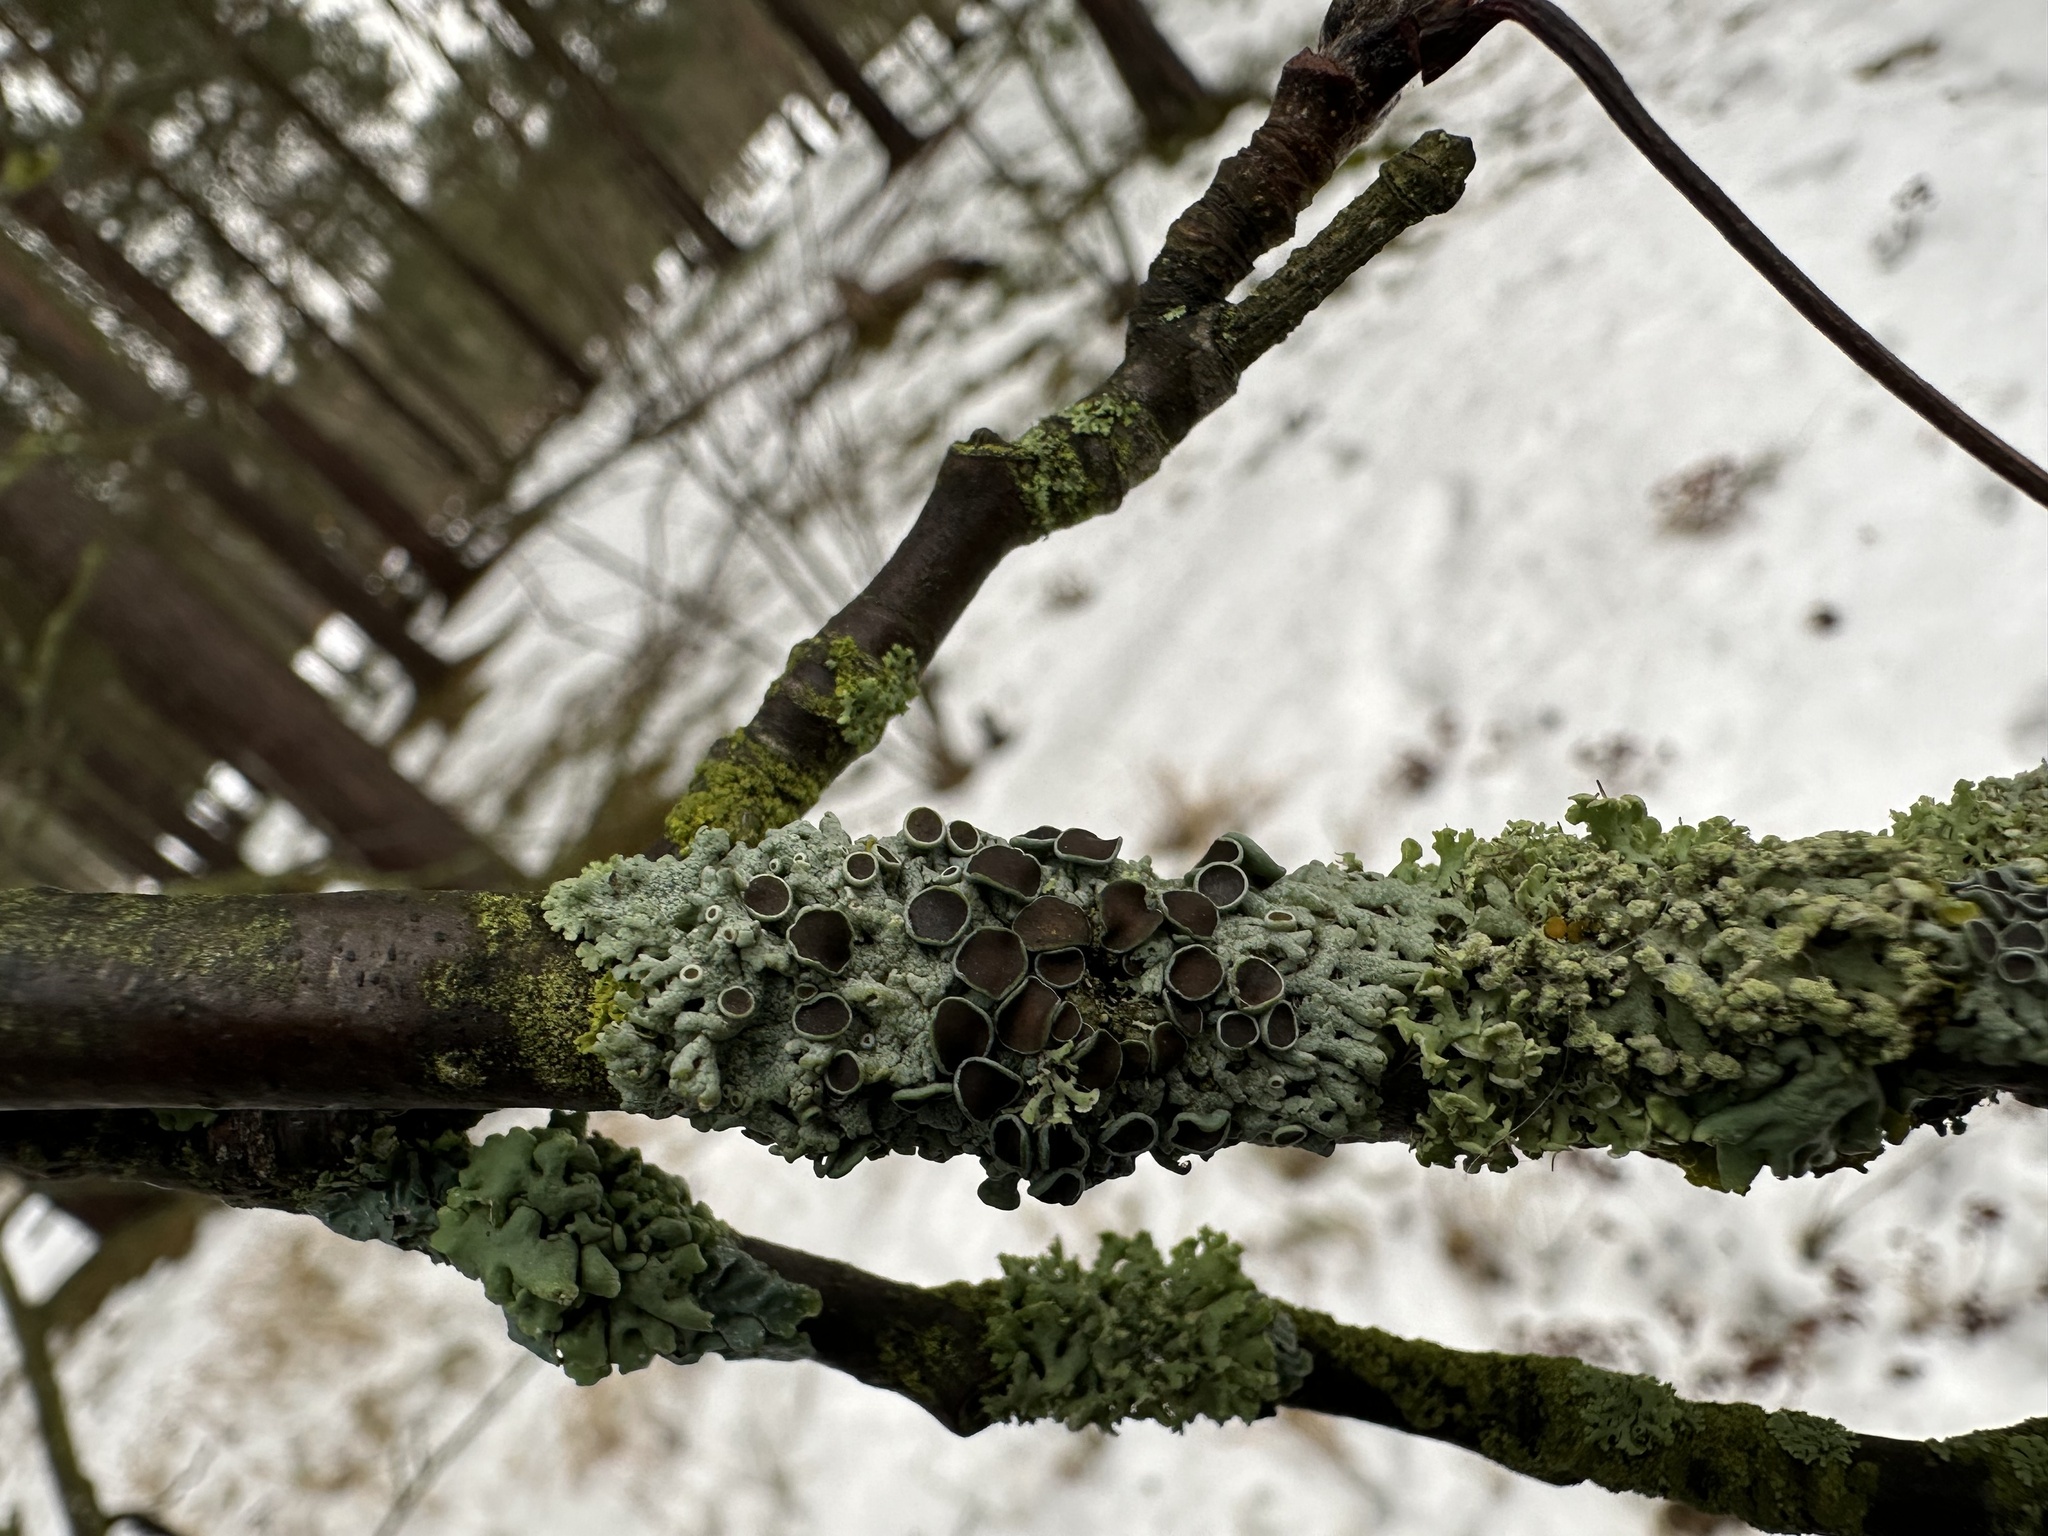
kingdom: Fungi
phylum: Ascomycota
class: Lecanoromycetes
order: Caliciales
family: Physciaceae
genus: Physcia
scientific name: Physcia aipolia
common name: Hoary rosette lichen
